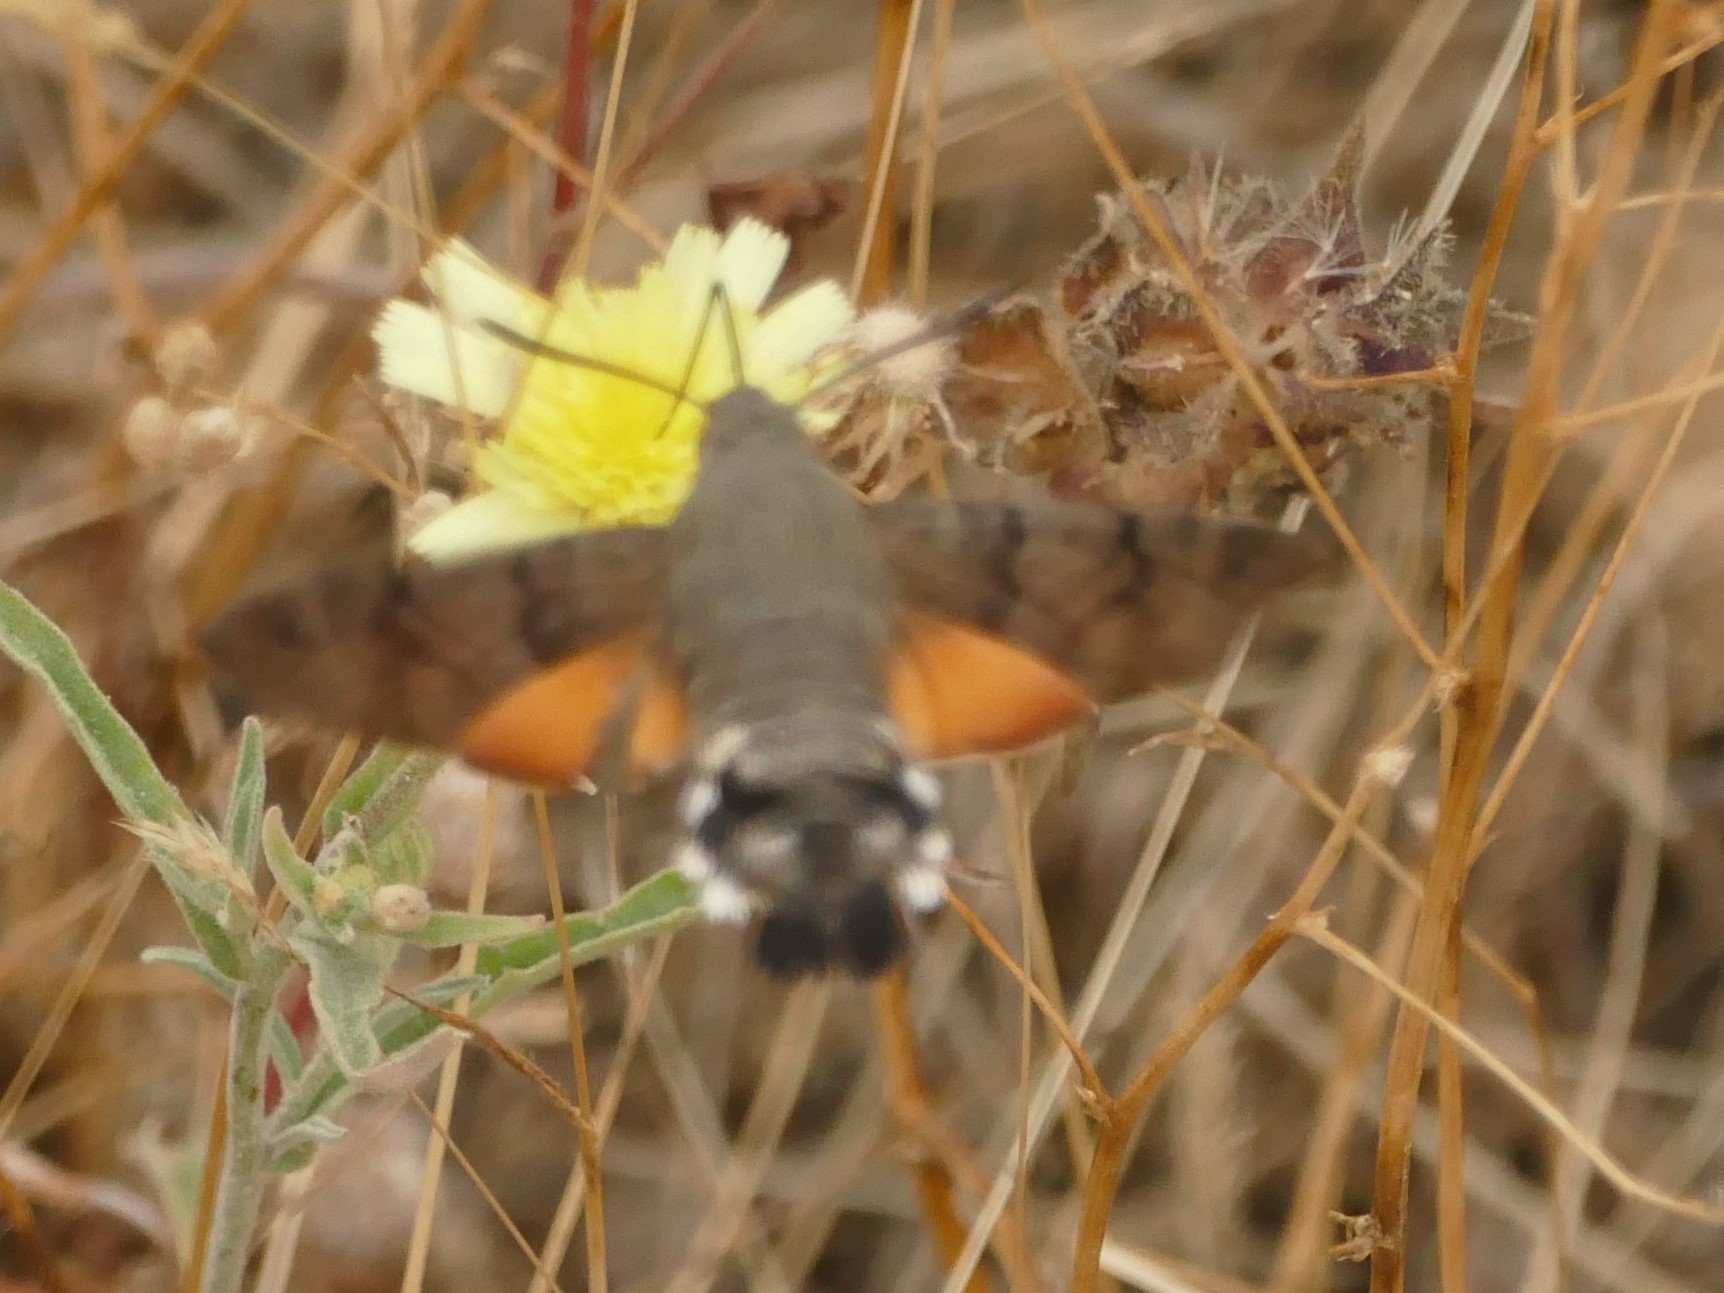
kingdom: Animalia
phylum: Arthropoda
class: Insecta
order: Lepidoptera
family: Sphingidae
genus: Macroglossum
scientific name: Macroglossum stellatarum
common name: Humming-bird hawk-moth
